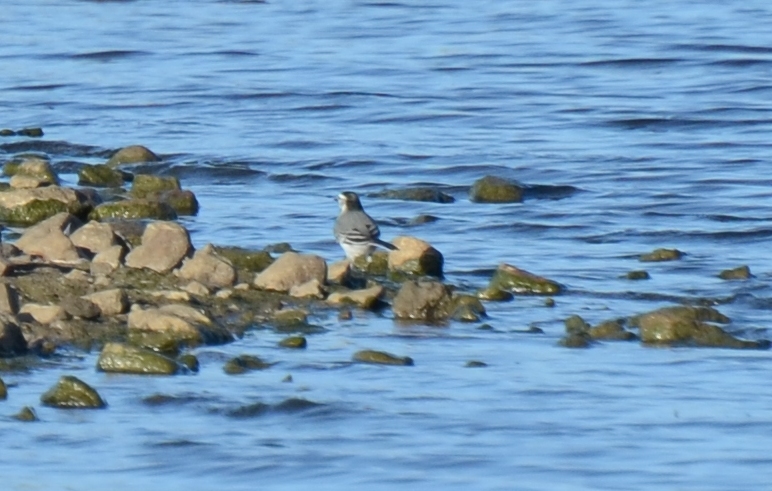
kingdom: Animalia
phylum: Chordata
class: Aves
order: Passeriformes
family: Motacillidae
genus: Motacilla
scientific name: Motacilla alba
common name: White wagtail
